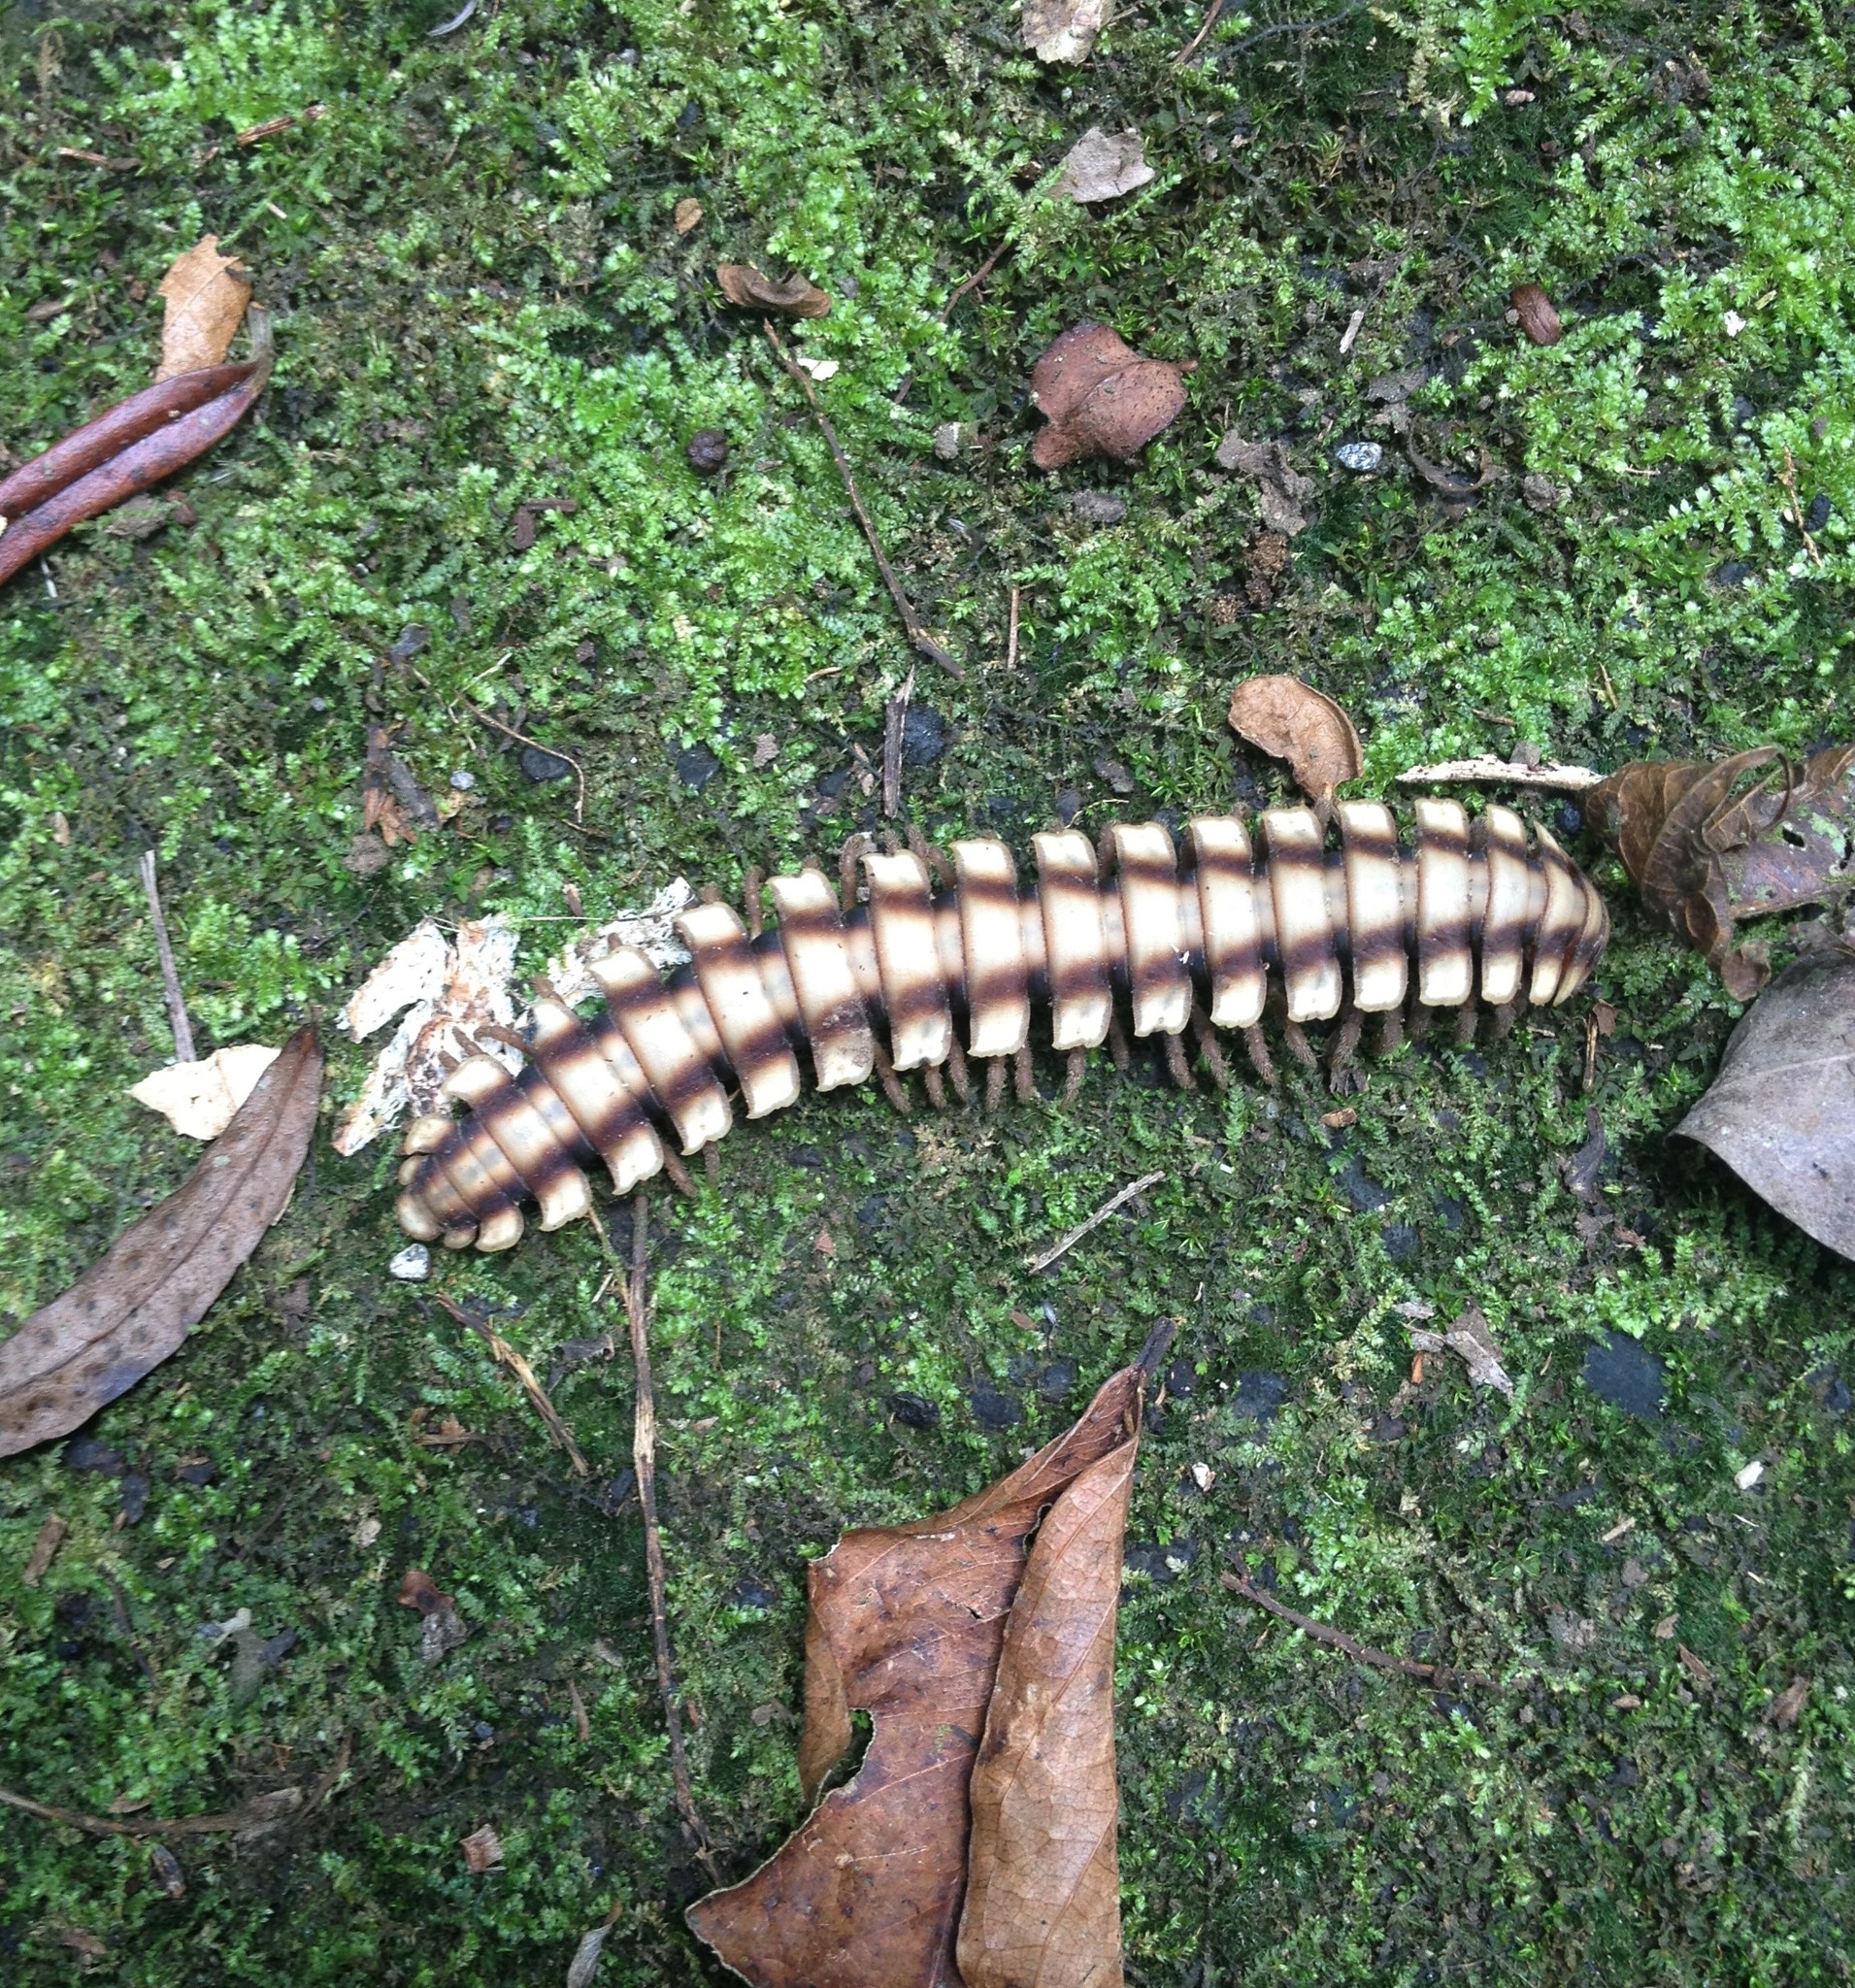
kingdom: Animalia
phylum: Arthropoda
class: Diplopoda
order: Polydesmida
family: Platyrhacidae
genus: Nyssodesmus
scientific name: Nyssodesmus python
